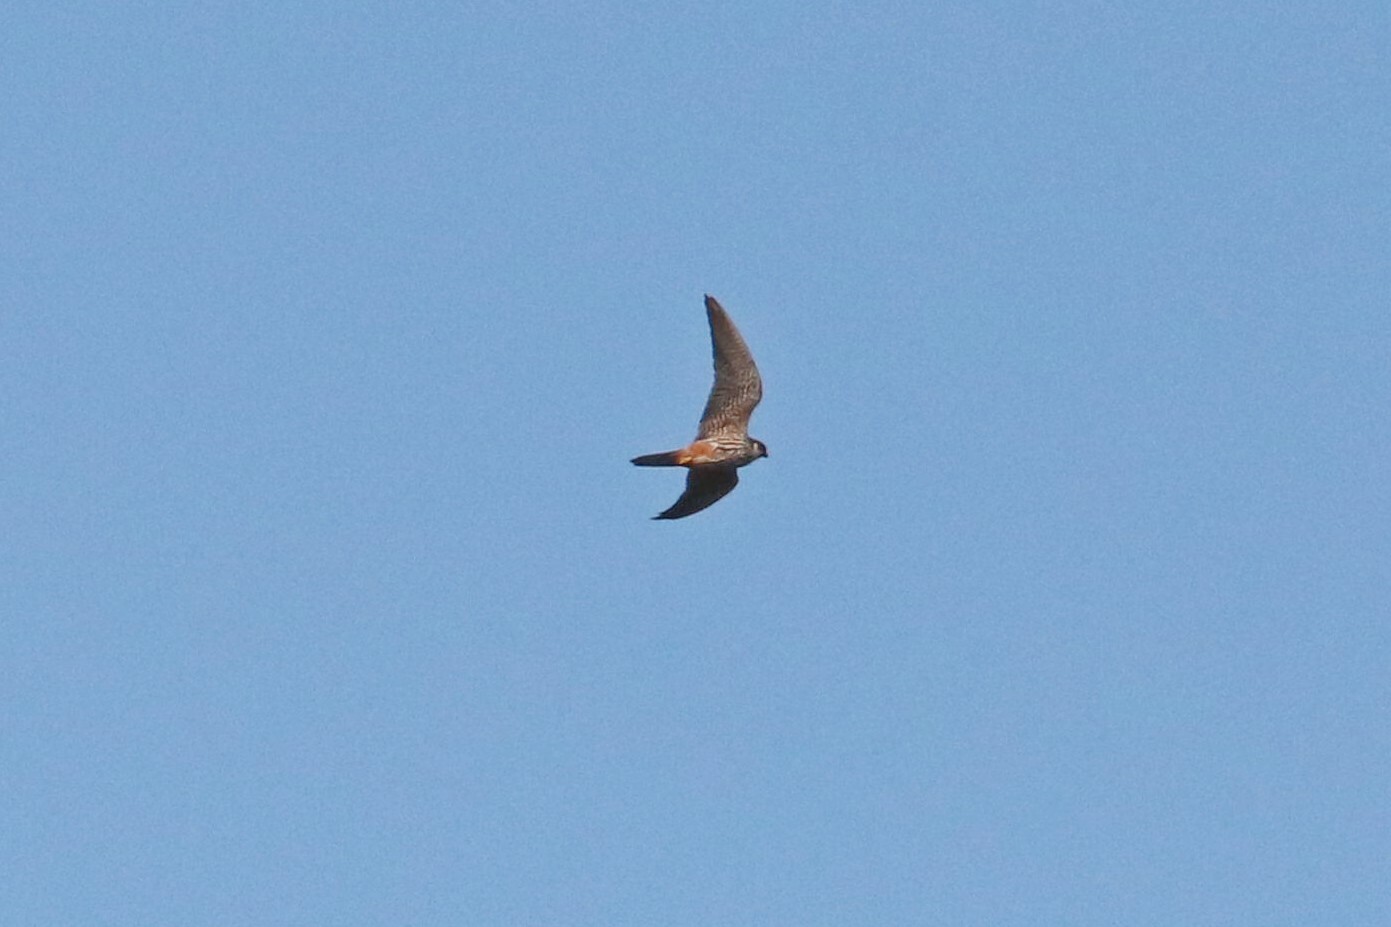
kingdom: Animalia
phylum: Chordata
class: Aves
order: Falconiformes
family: Falconidae
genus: Falco
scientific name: Falco subbuteo
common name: Eurasian hobby
